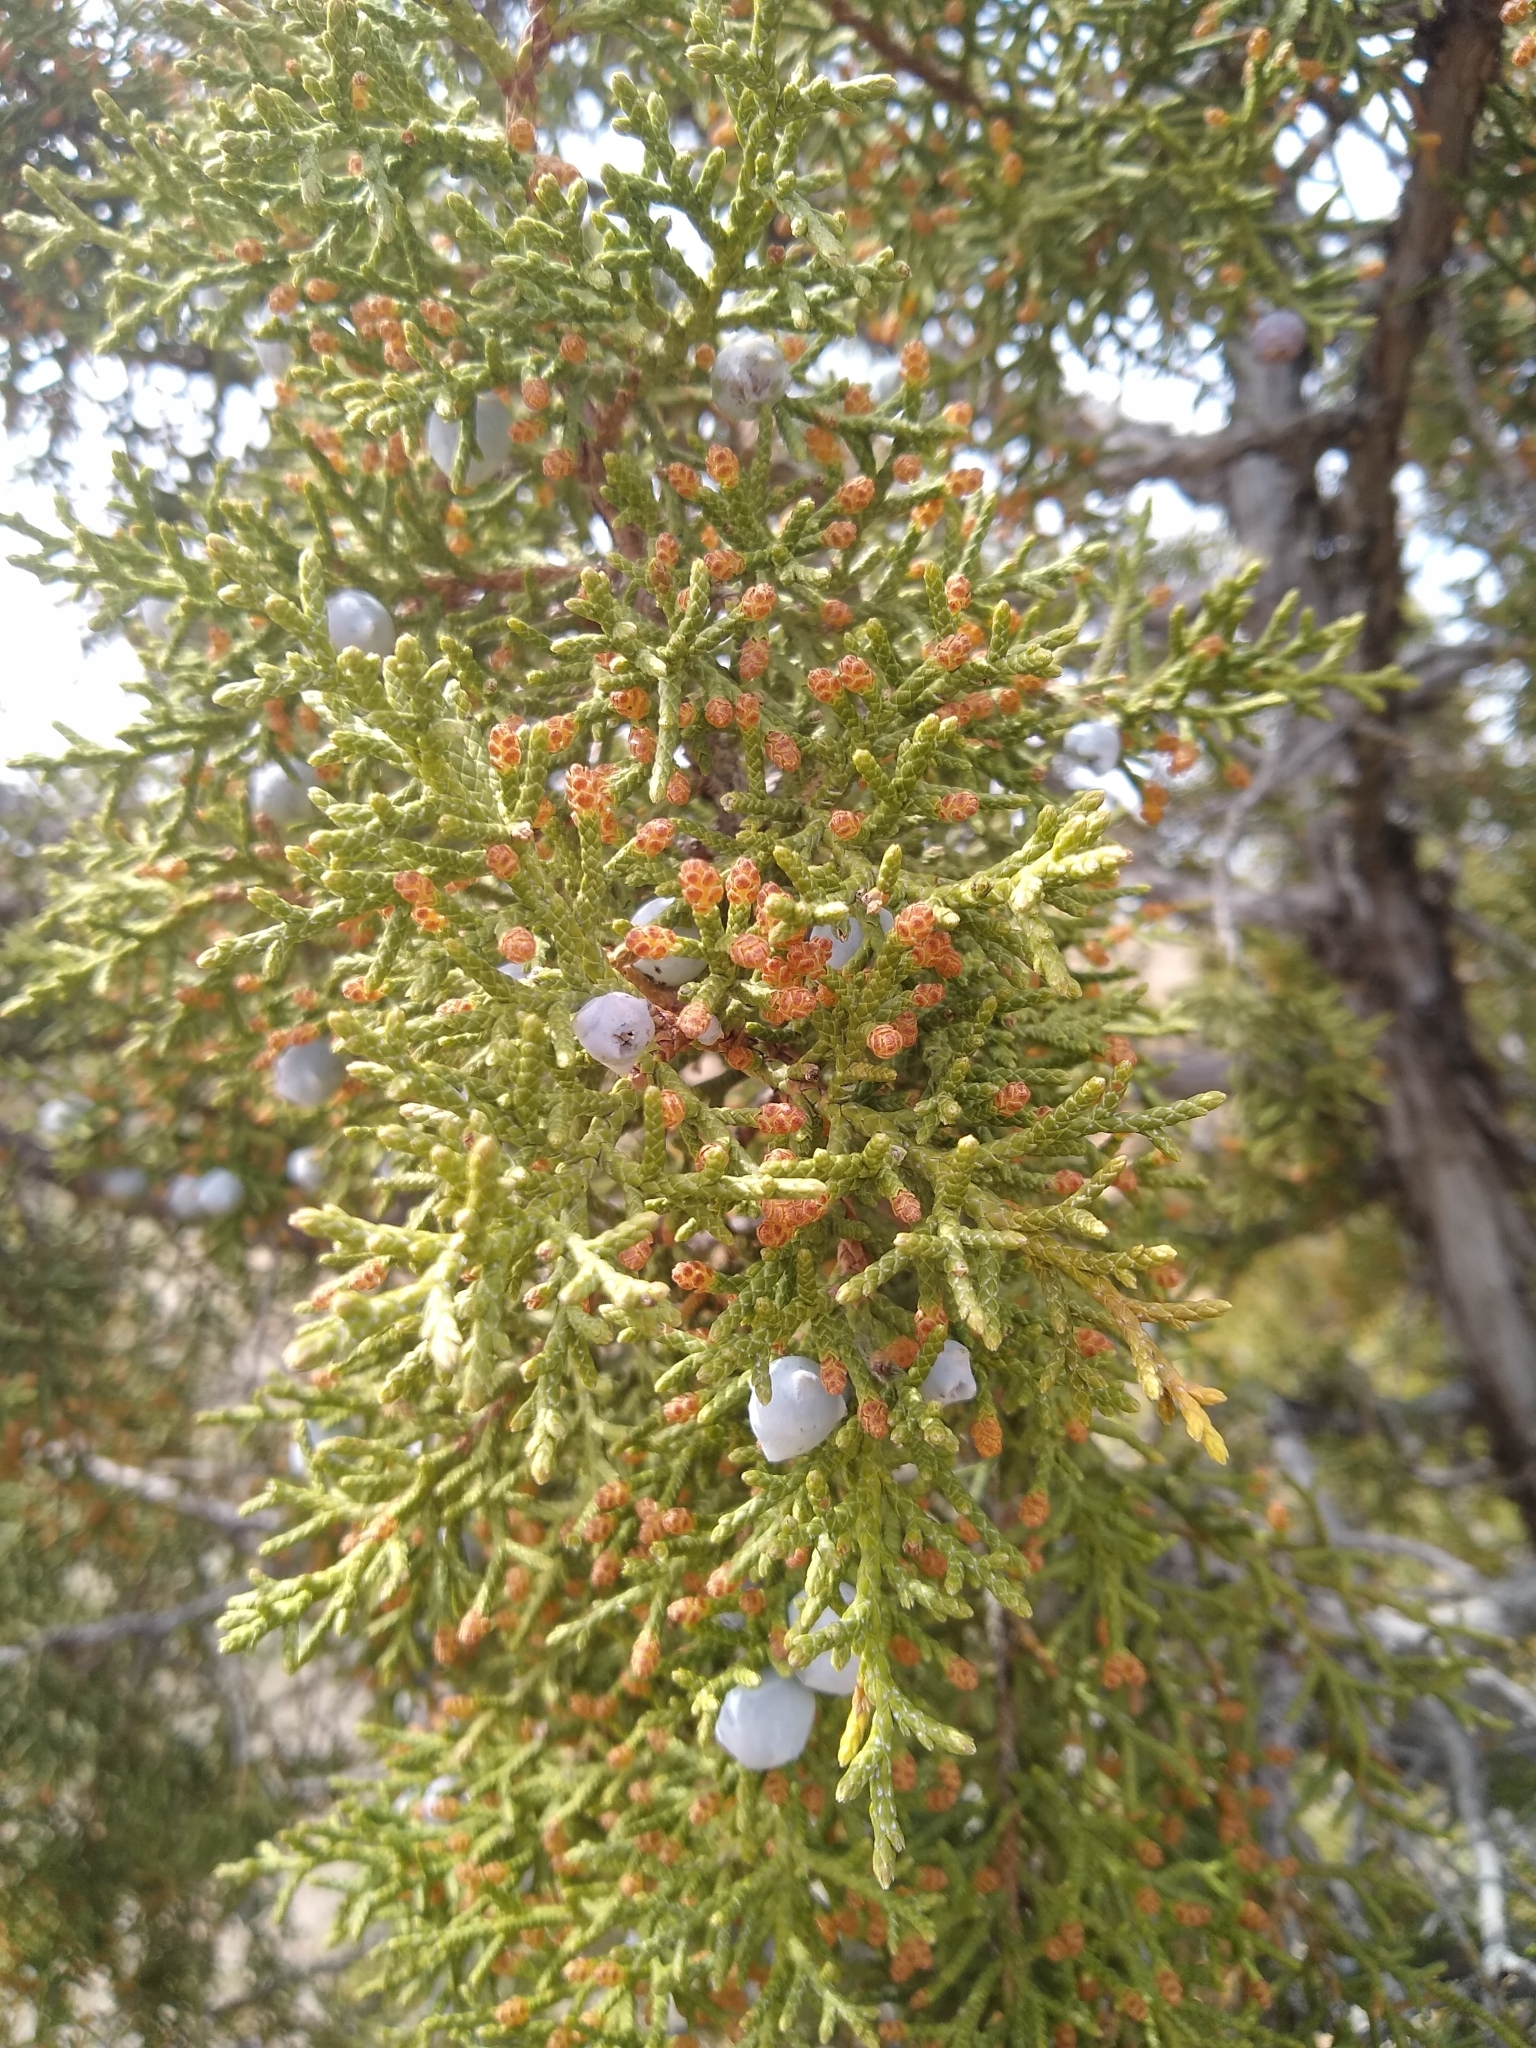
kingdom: Plantae
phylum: Tracheophyta
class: Pinopsida
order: Pinales
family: Cupressaceae
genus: Juniperus
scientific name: Juniperus osteosperma
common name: Utah juniper
